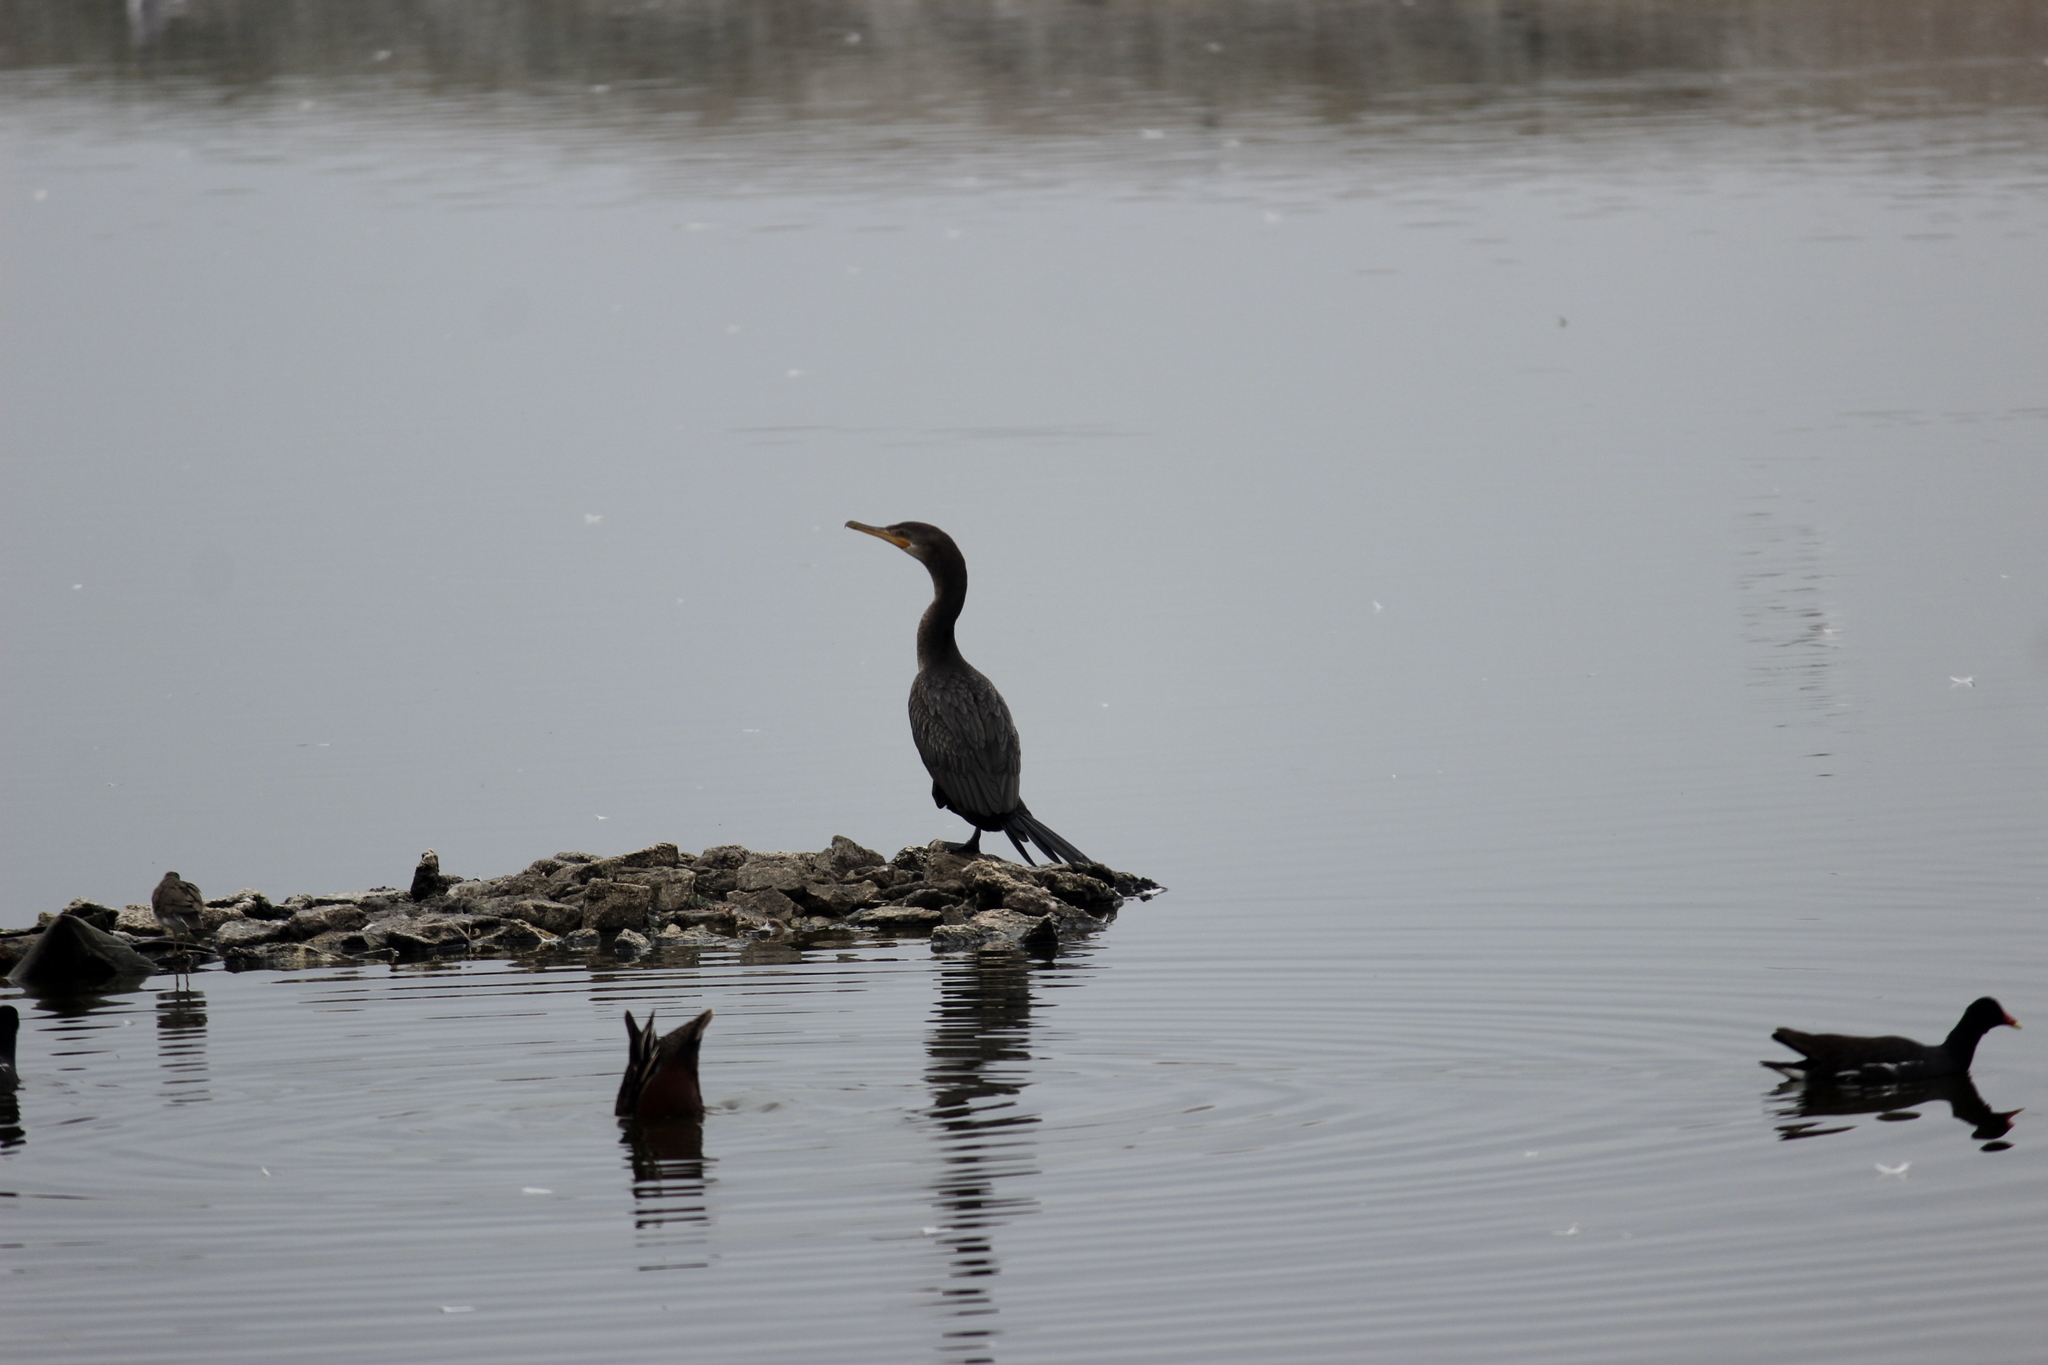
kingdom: Animalia
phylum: Chordata
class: Aves
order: Suliformes
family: Phalacrocoracidae
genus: Phalacrocorax
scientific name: Phalacrocorax brasilianus
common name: Neotropic cormorant
